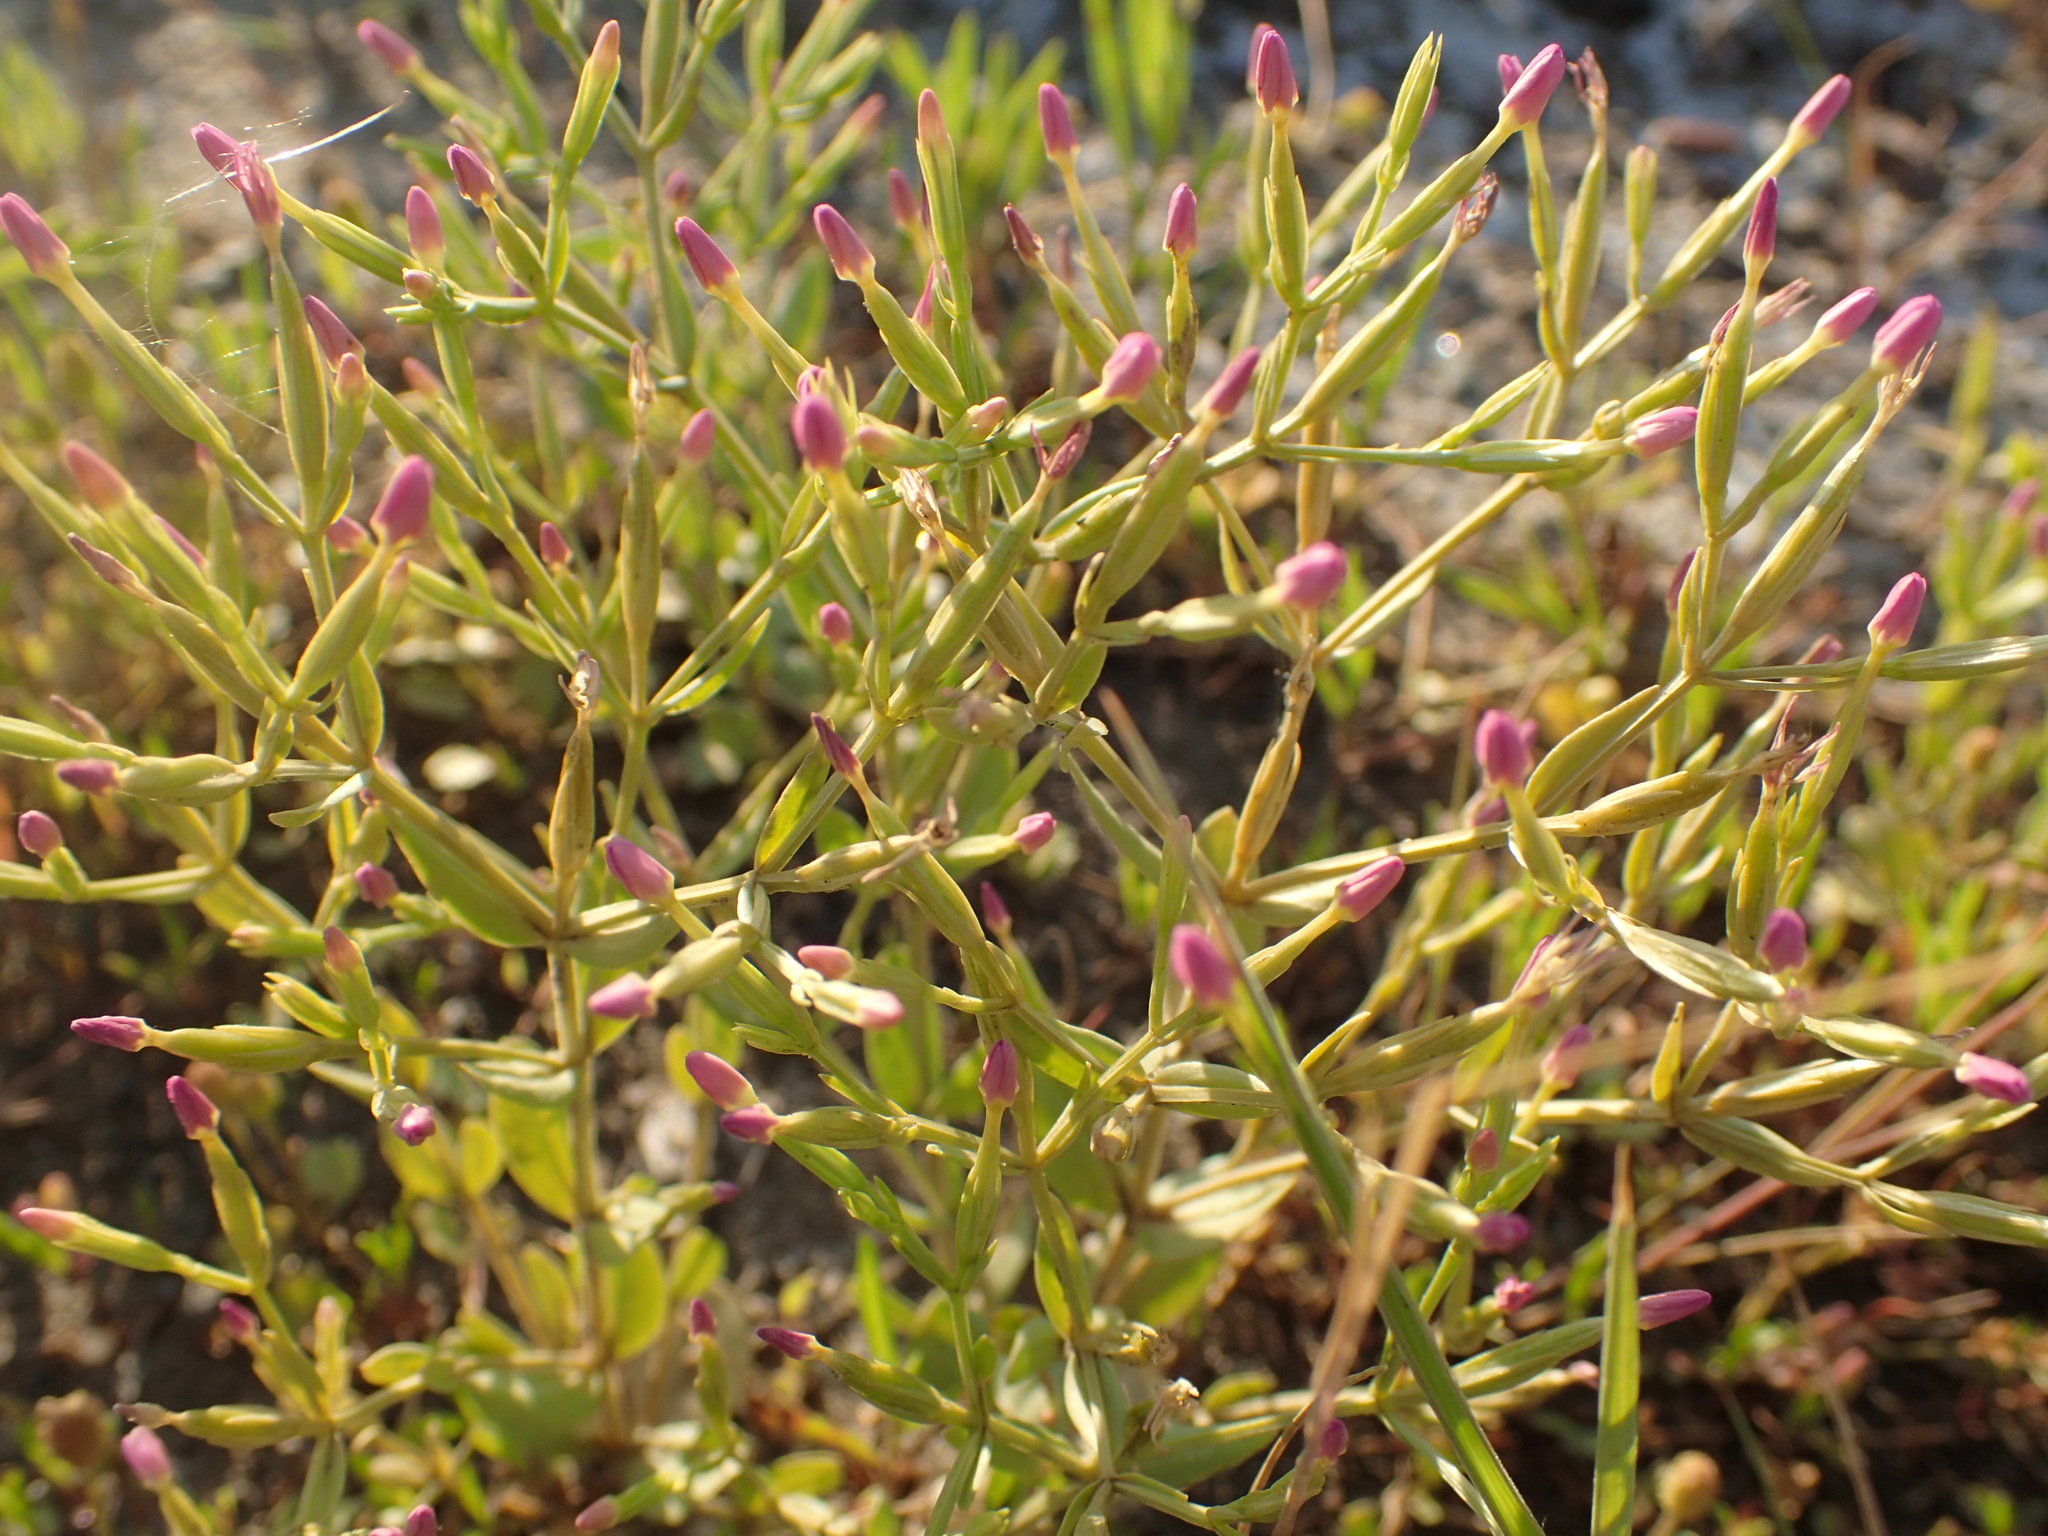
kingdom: Plantae
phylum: Tracheophyta
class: Magnoliopsida
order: Gentianales
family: Gentianaceae
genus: Centaurium
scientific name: Centaurium pulchellum
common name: Lesser centaury
